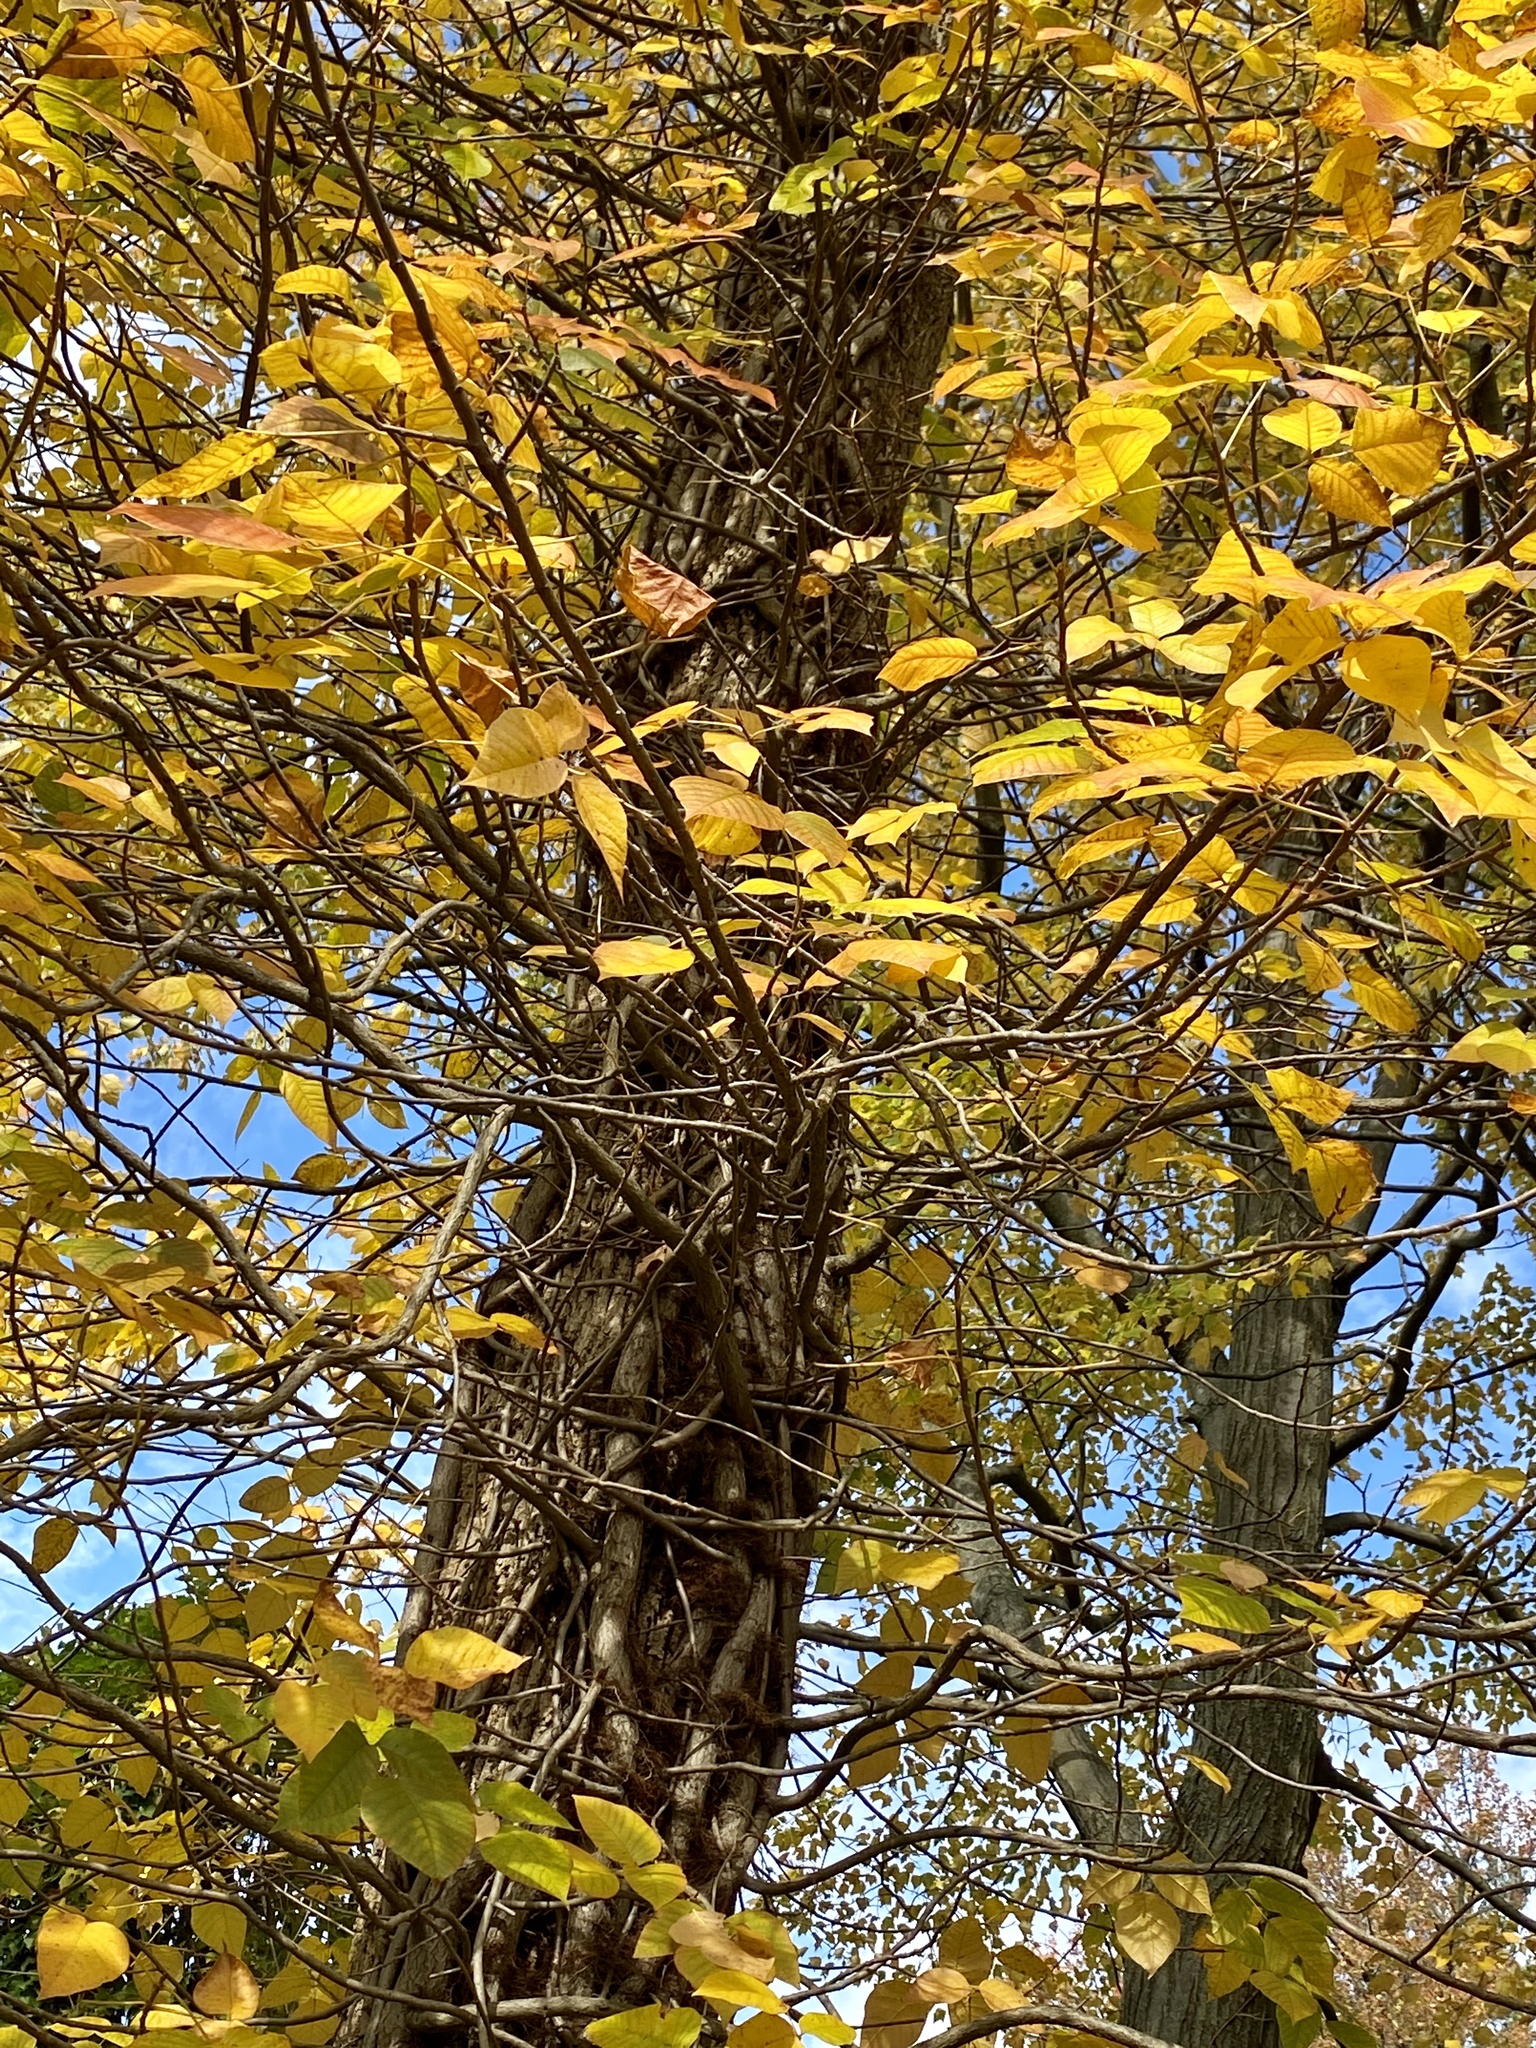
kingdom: Plantae
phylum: Tracheophyta
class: Magnoliopsida
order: Sapindales
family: Anacardiaceae
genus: Toxicodendron
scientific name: Toxicodendron radicans
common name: Poison ivy
